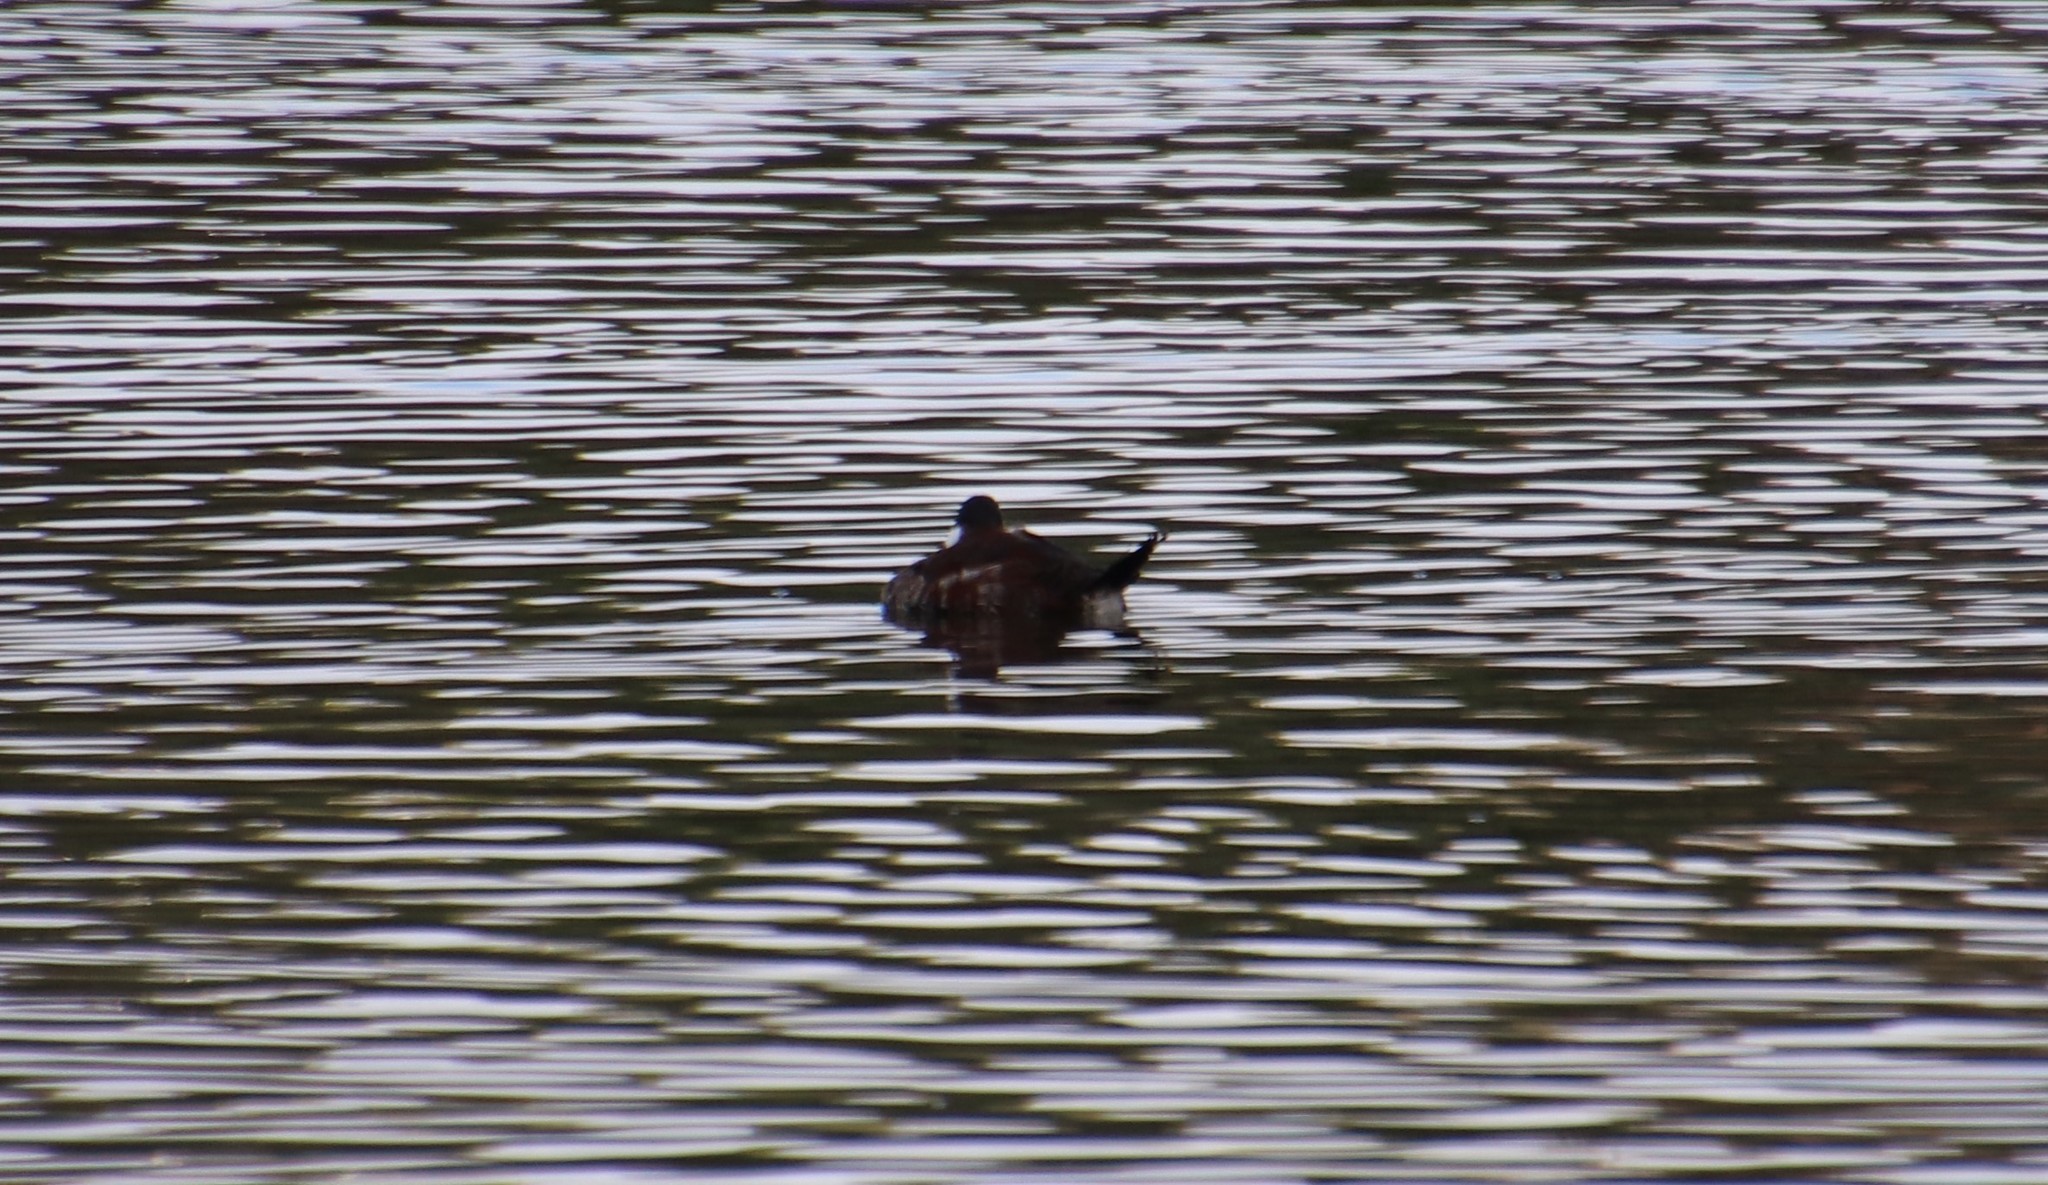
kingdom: Animalia
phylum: Chordata
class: Aves
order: Anseriformes
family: Anatidae
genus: Oxyura
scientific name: Oxyura jamaicensis
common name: Ruddy duck
